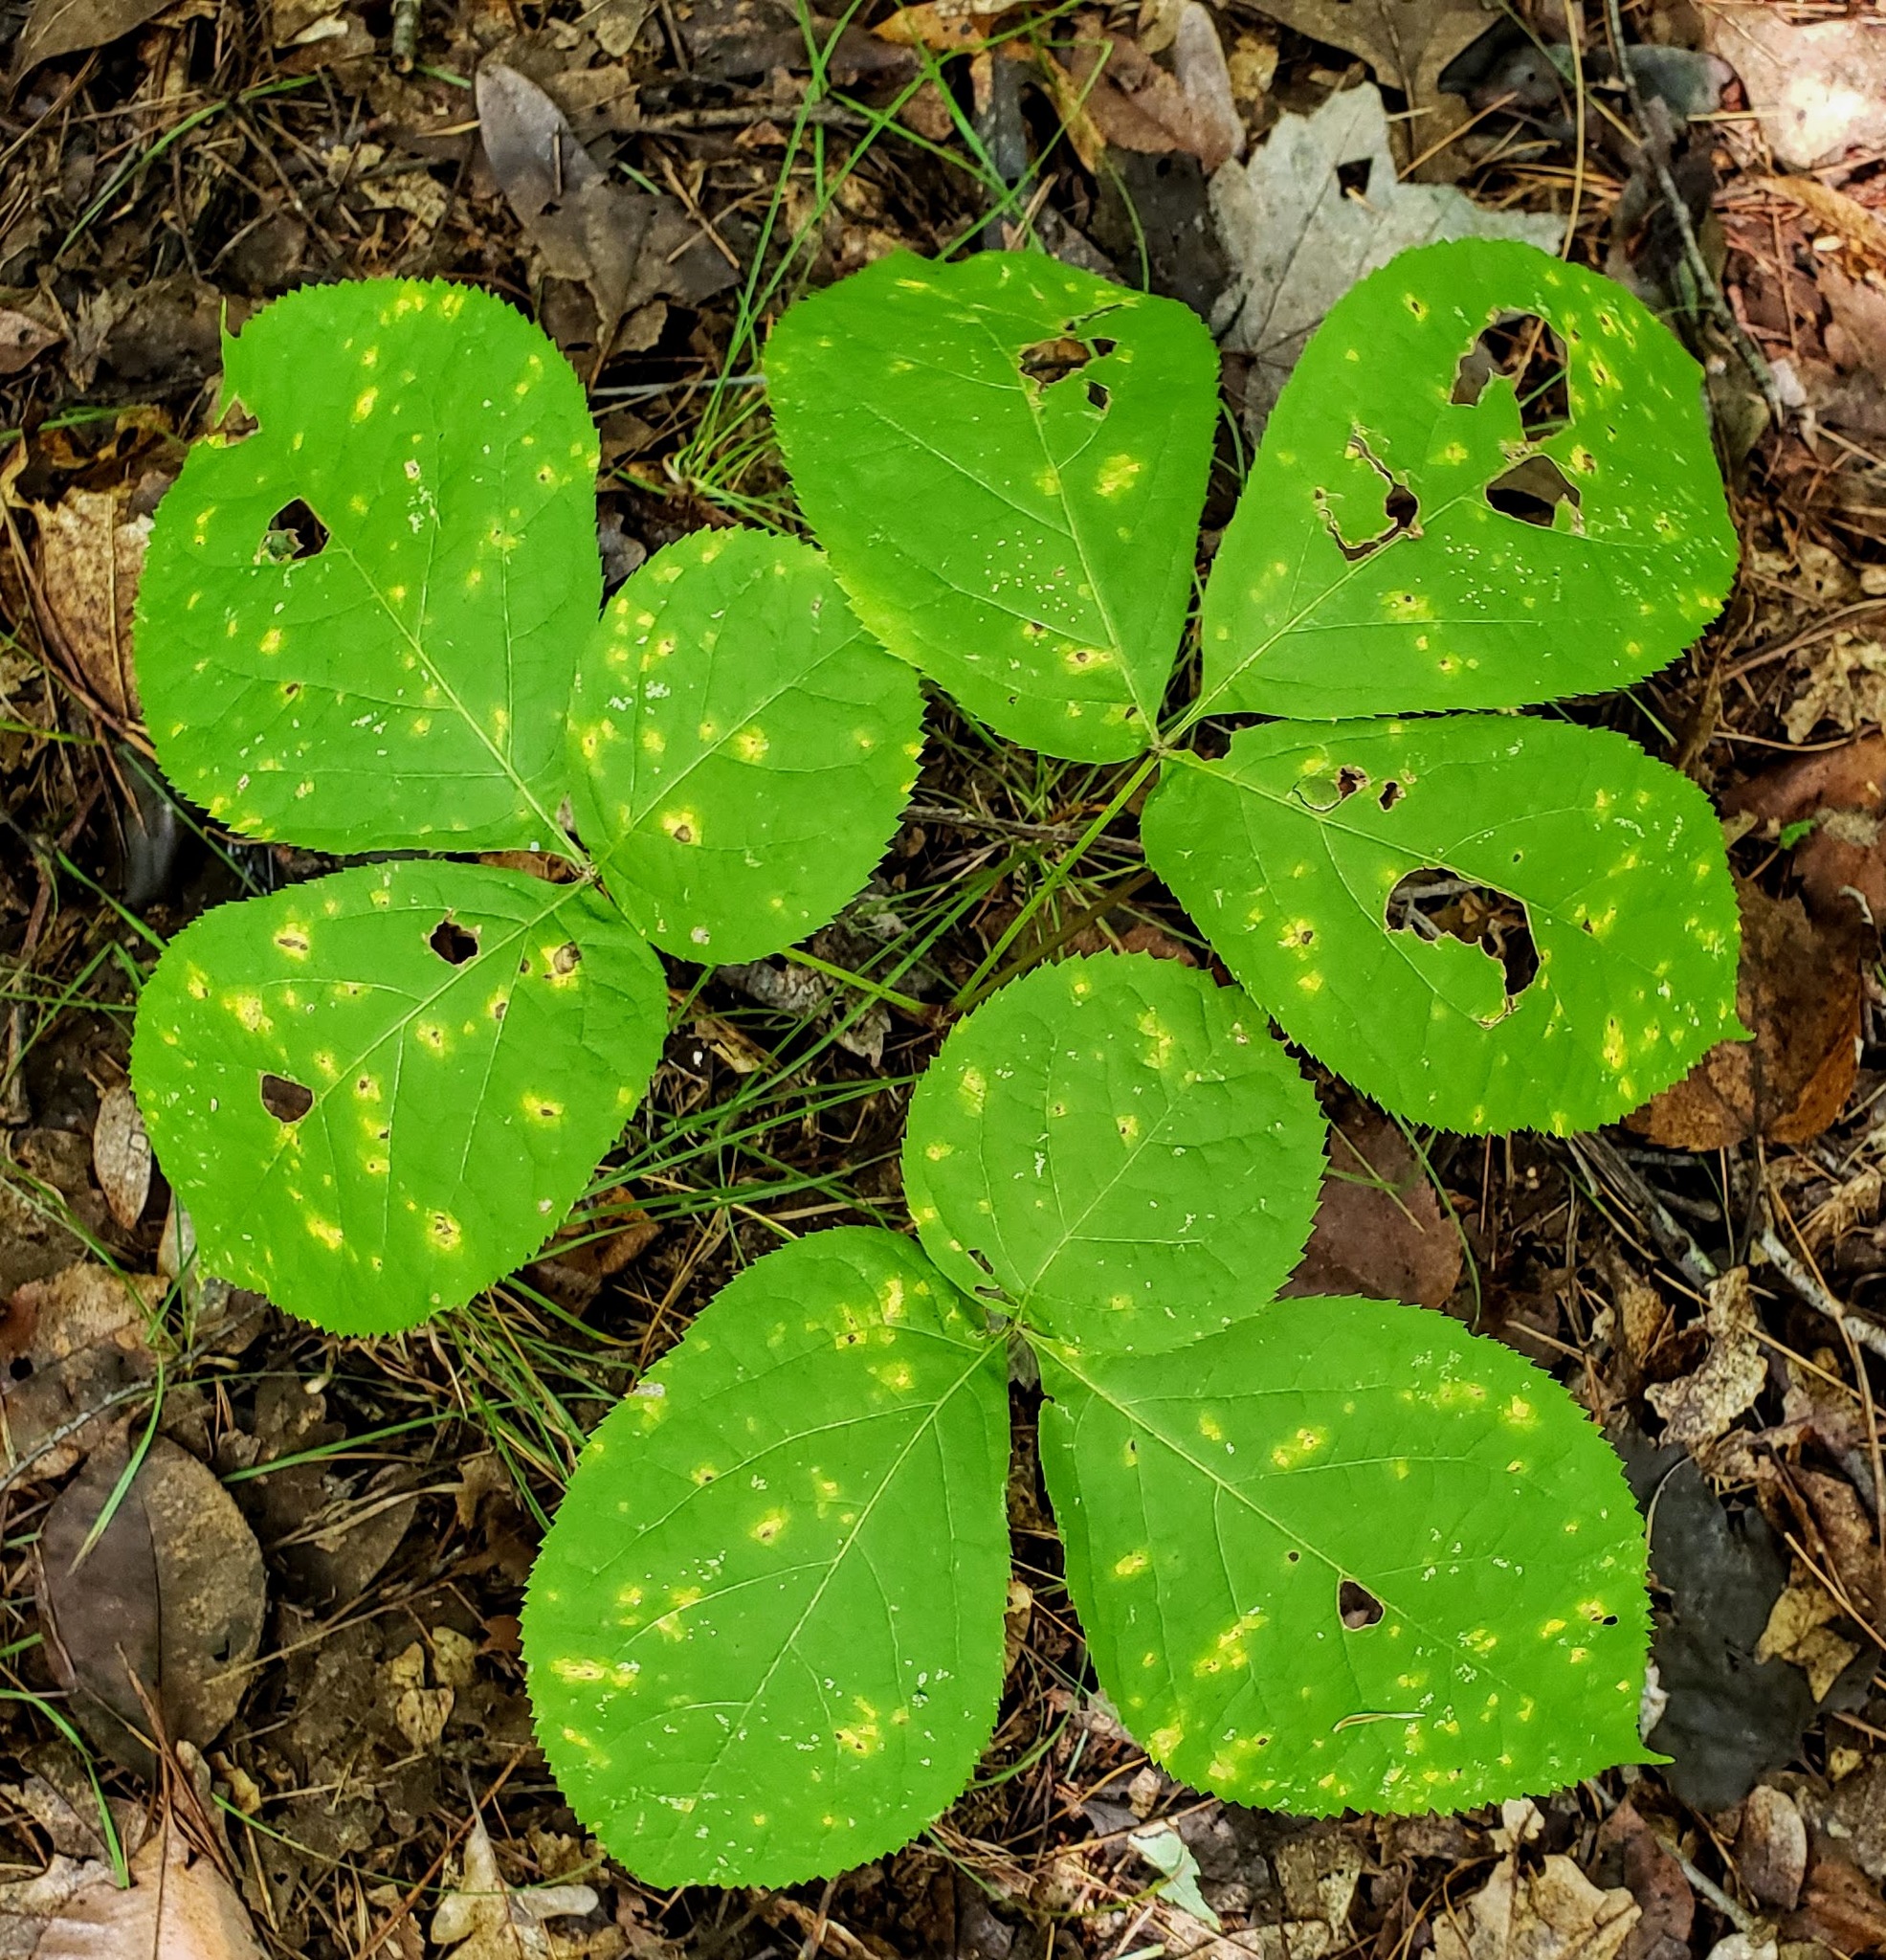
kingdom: Plantae
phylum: Tracheophyta
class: Magnoliopsida
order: Apiales
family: Araliaceae
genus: Aralia
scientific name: Aralia nudicaulis
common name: Wild sarsaparilla
